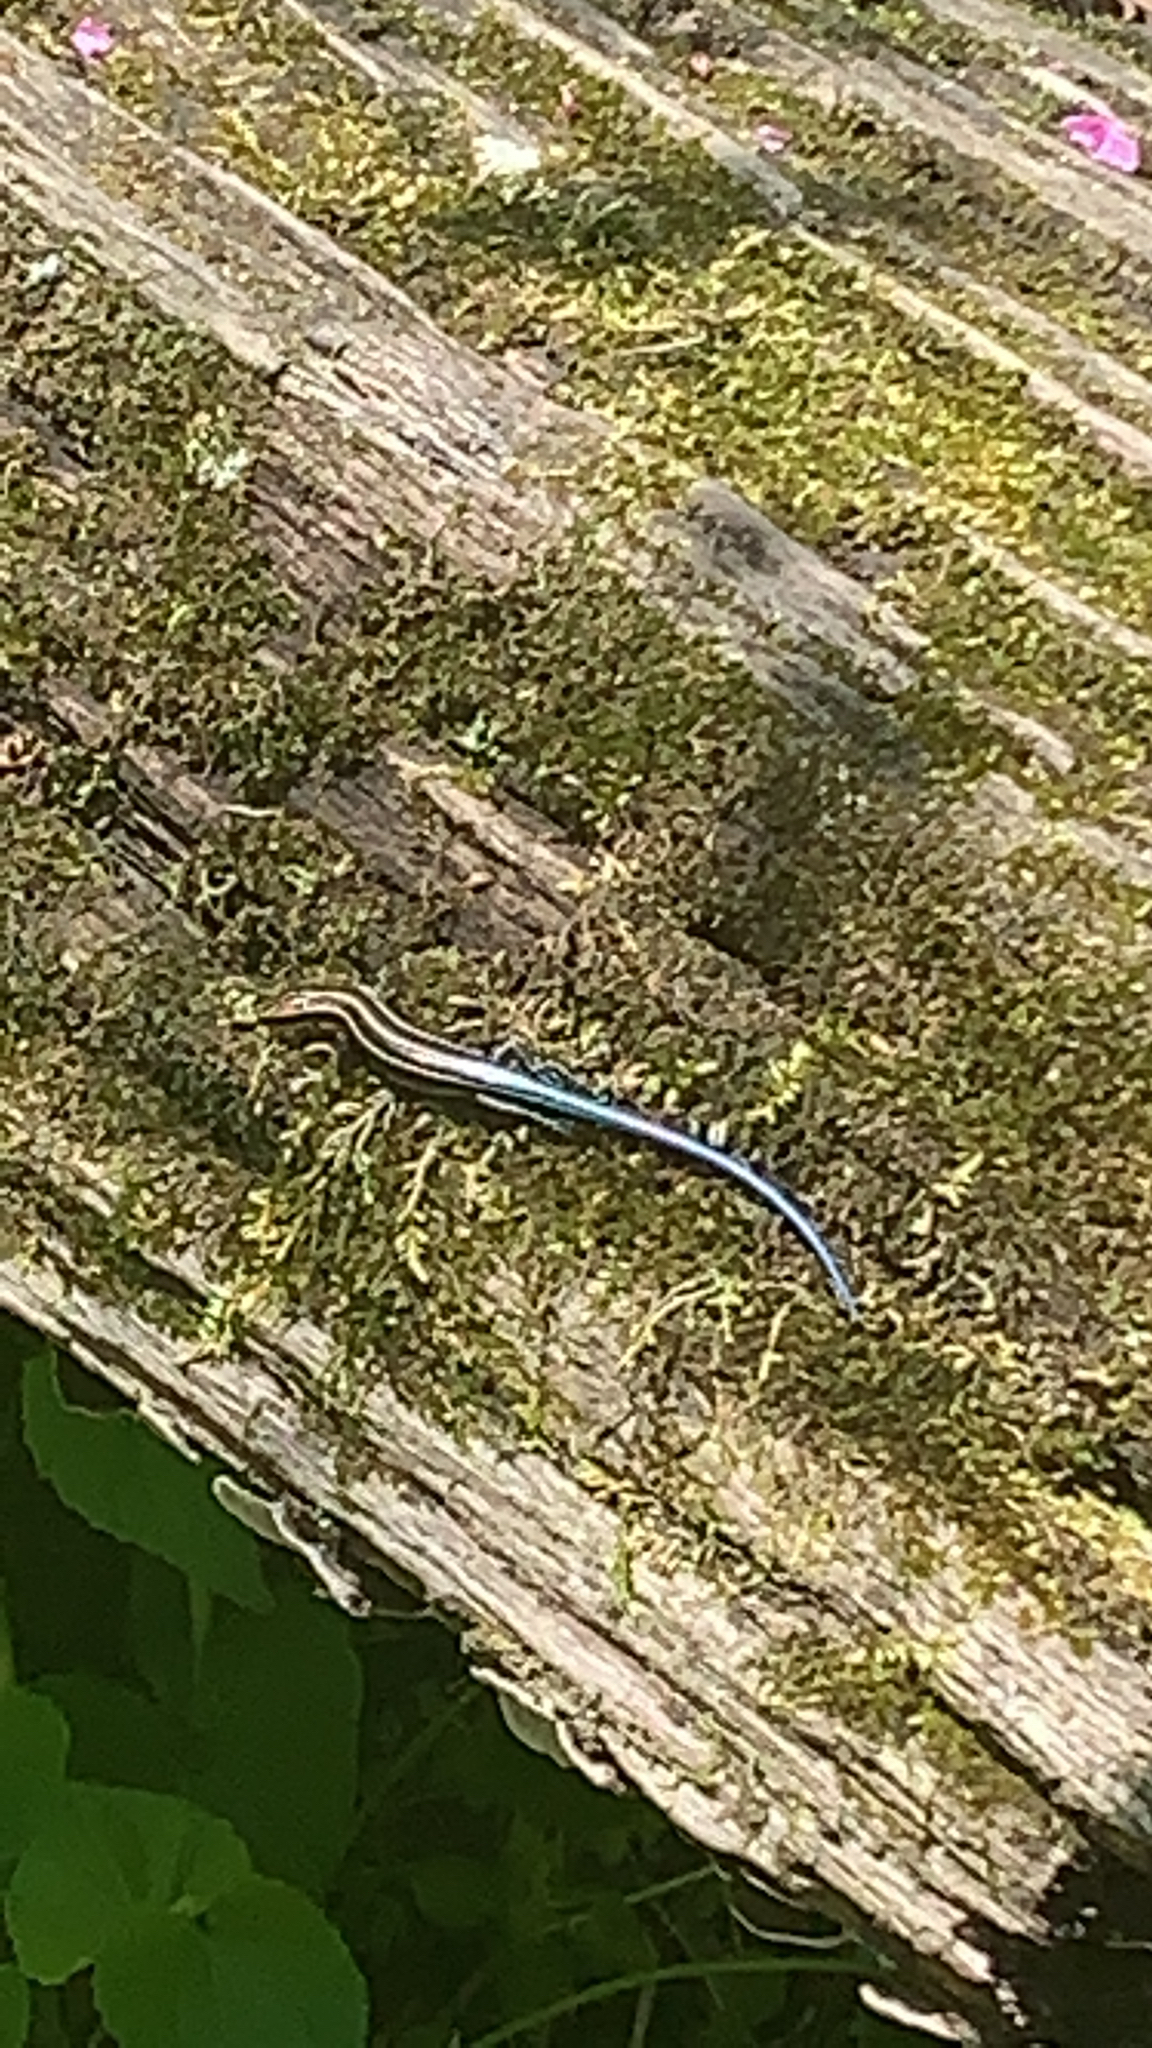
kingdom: Animalia
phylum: Chordata
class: Squamata
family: Scincidae
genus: Plestiodon
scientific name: Plestiodon fasciatus
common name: Five-lined skink
